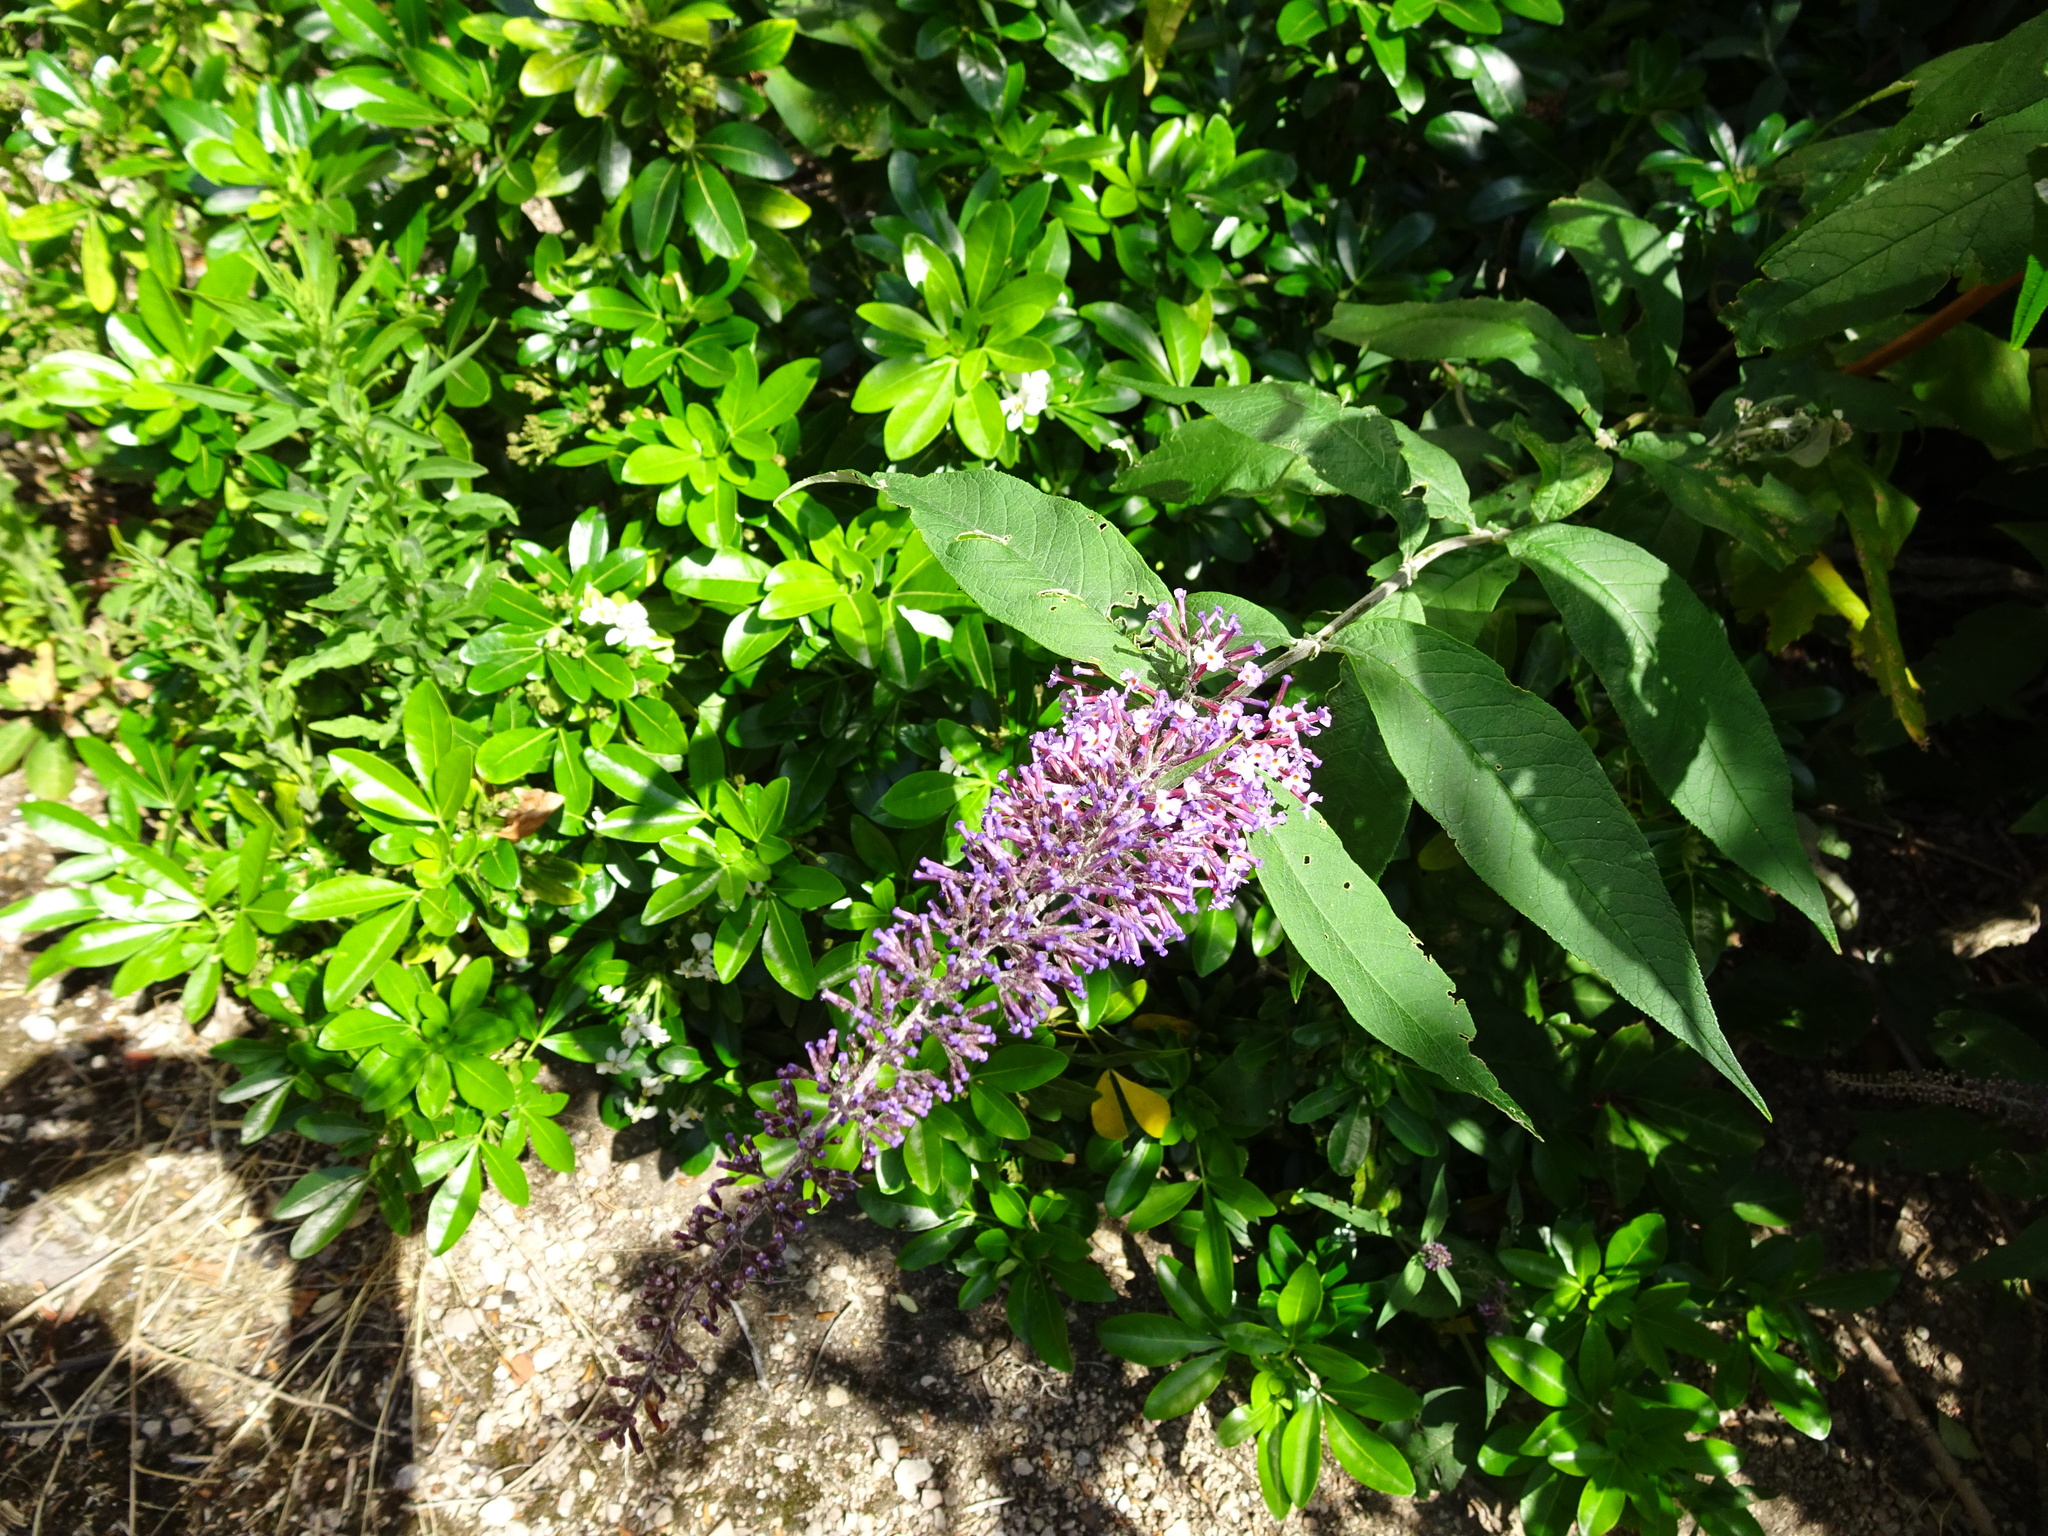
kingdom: Plantae
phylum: Tracheophyta
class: Magnoliopsida
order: Lamiales
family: Scrophulariaceae
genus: Buddleja
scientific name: Buddleja davidii
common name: Butterfly-bush
